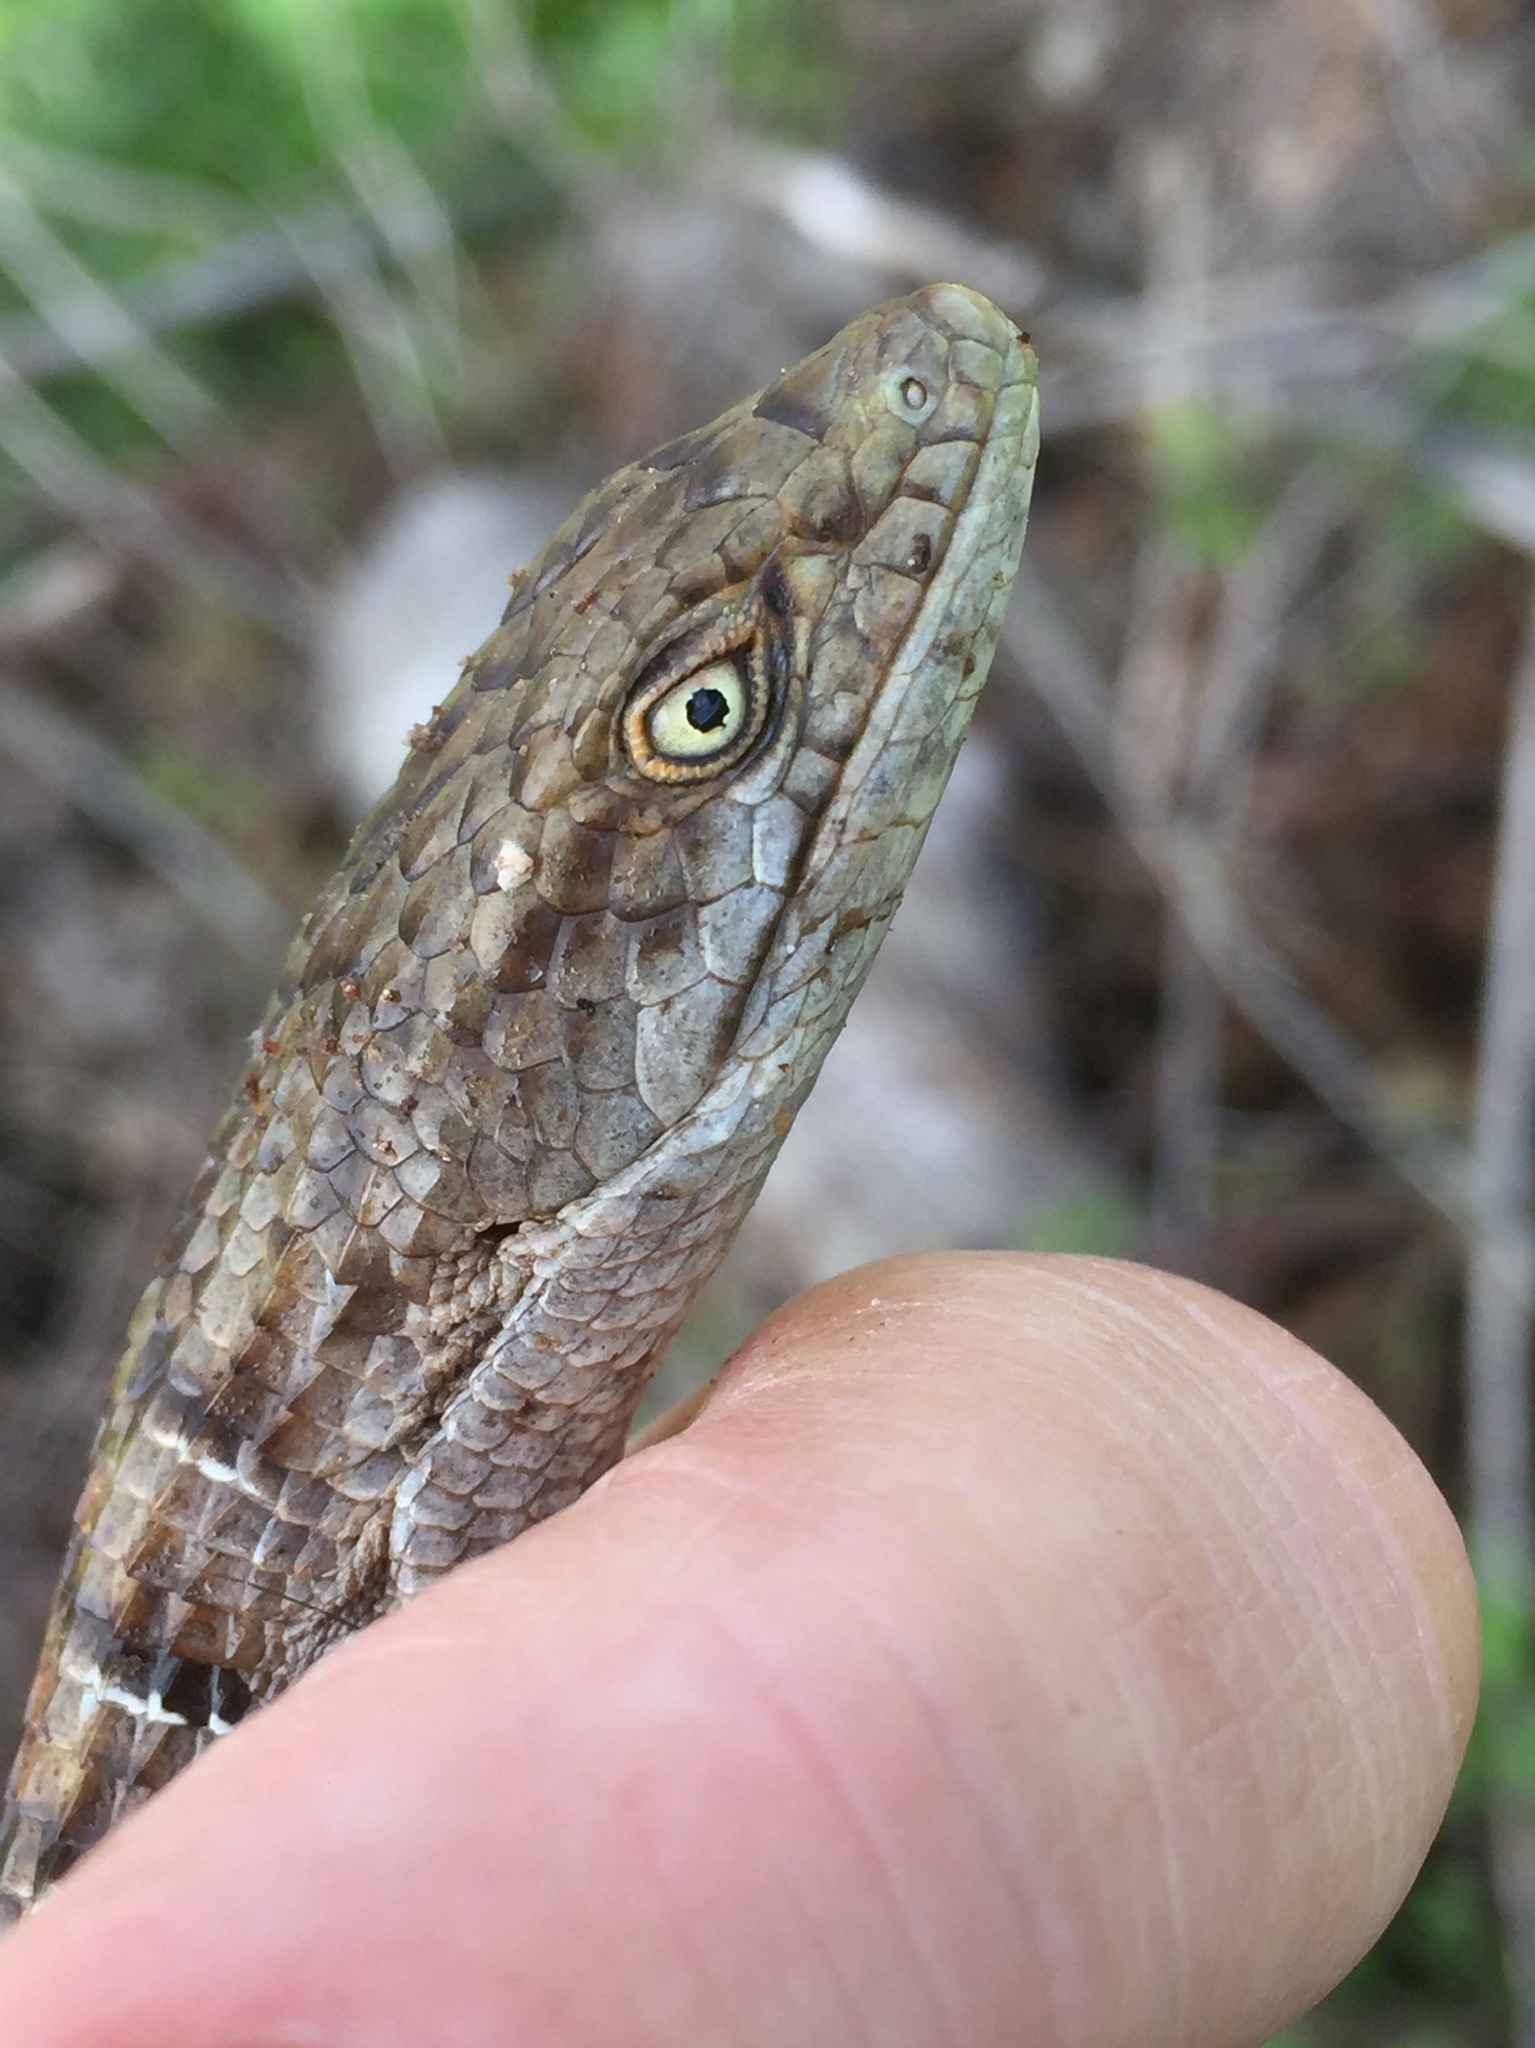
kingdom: Animalia
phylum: Chordata
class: Squamata
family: Anguidae
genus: Elgaria
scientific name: Elgaria multicarinata
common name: Southern alligator lizard
